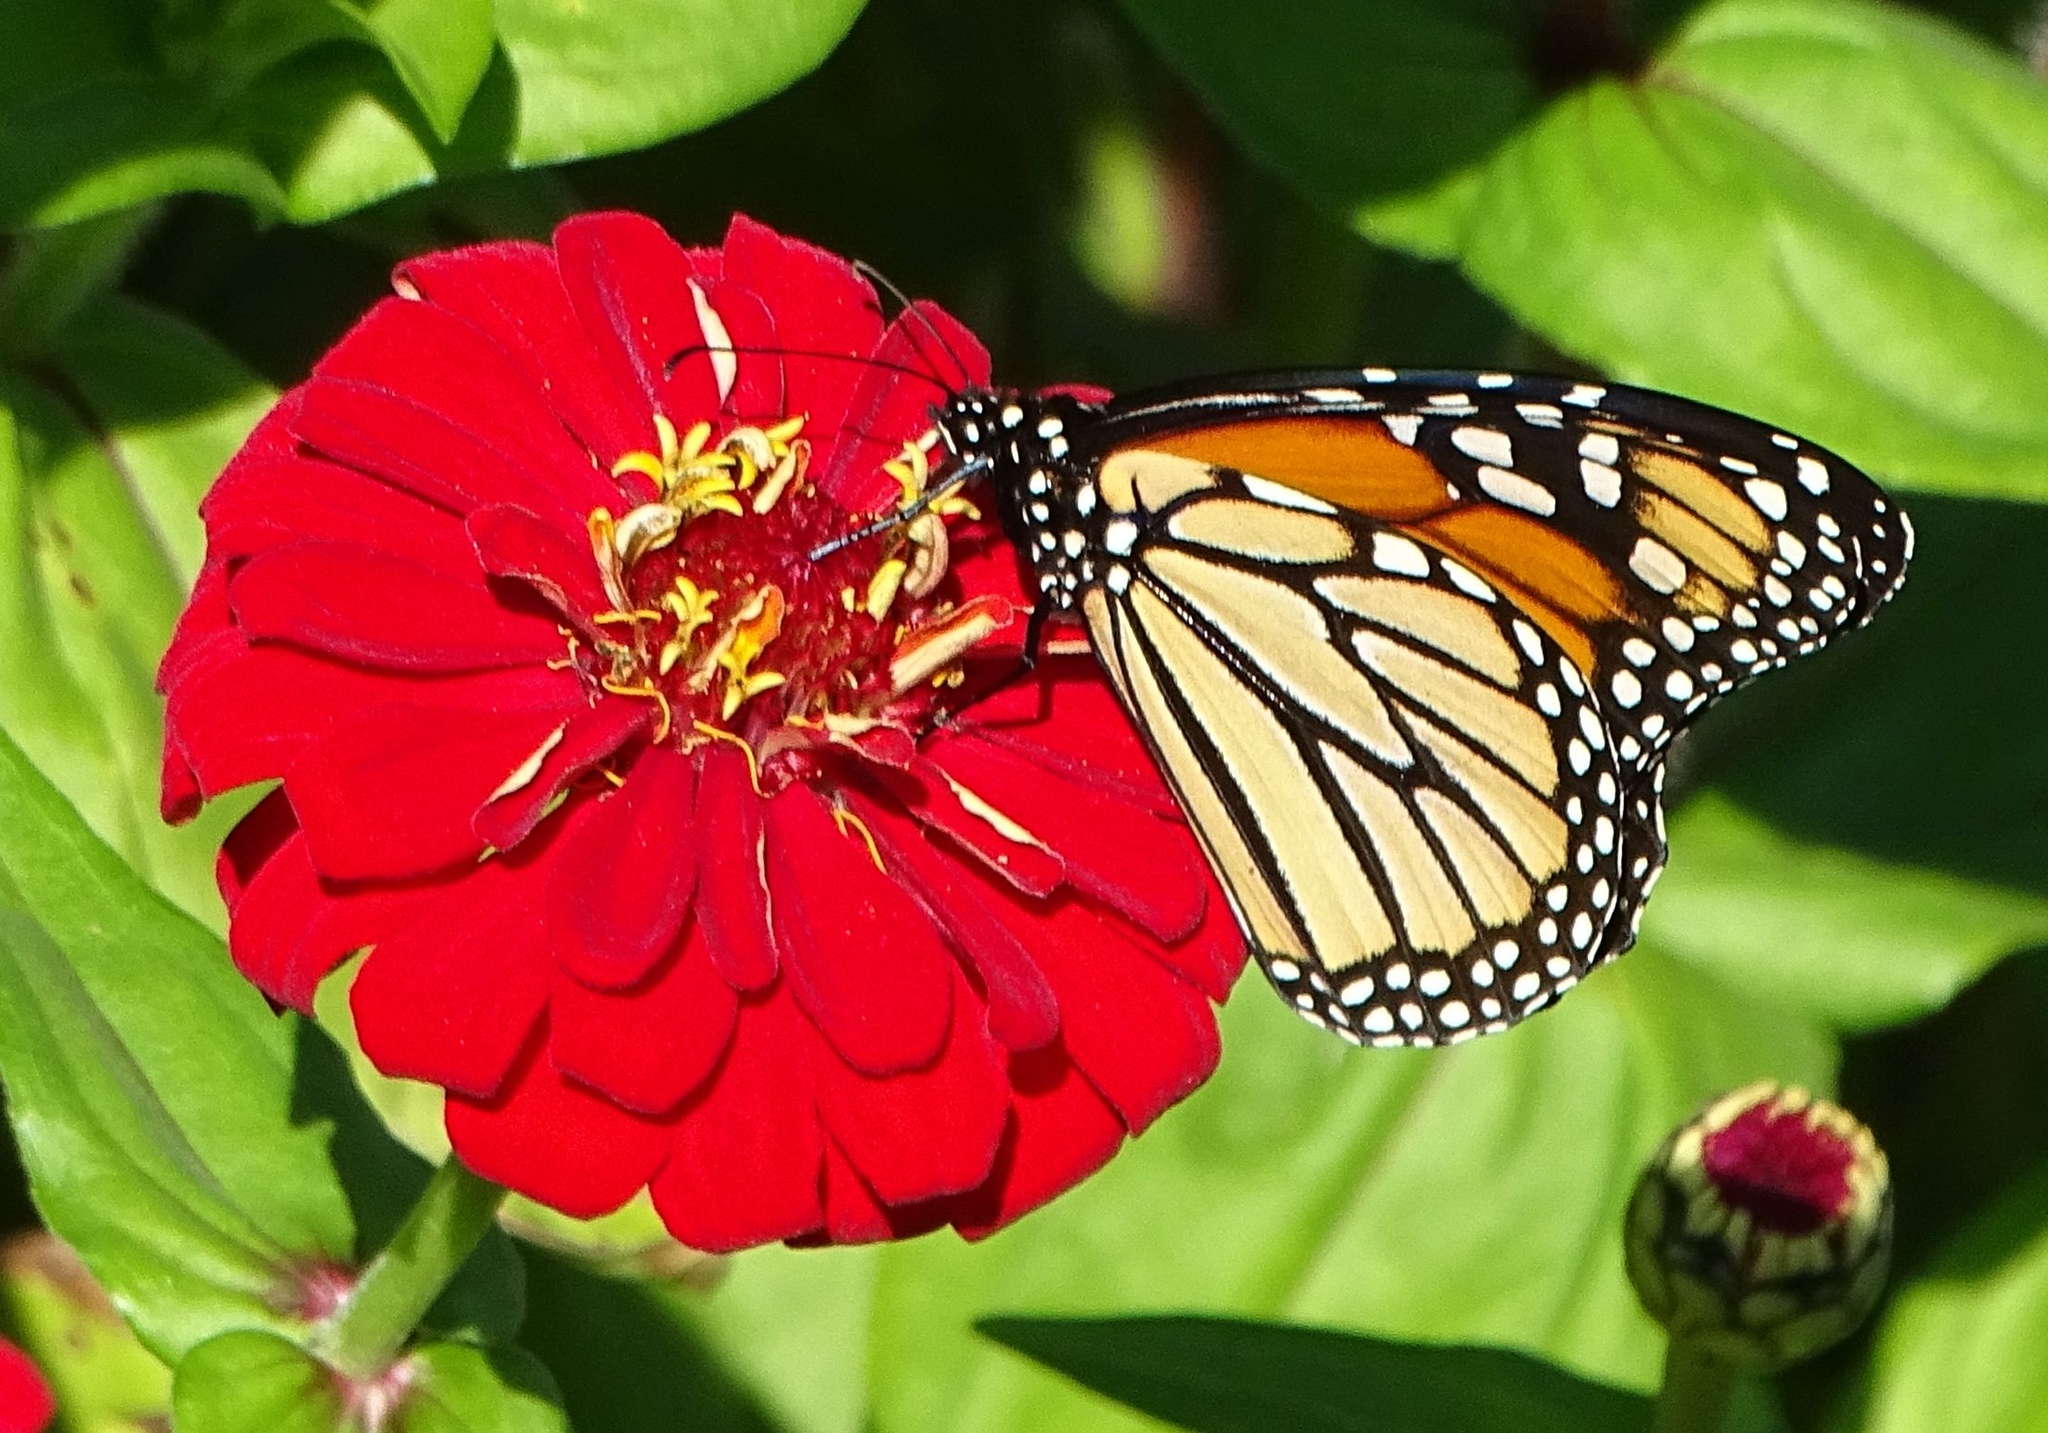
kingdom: Animalia
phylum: Arthropoda
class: Insecta
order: Lepidoptera
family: Nymphalidae
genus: Danaus
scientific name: Danaus plexippus
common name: Monarch
